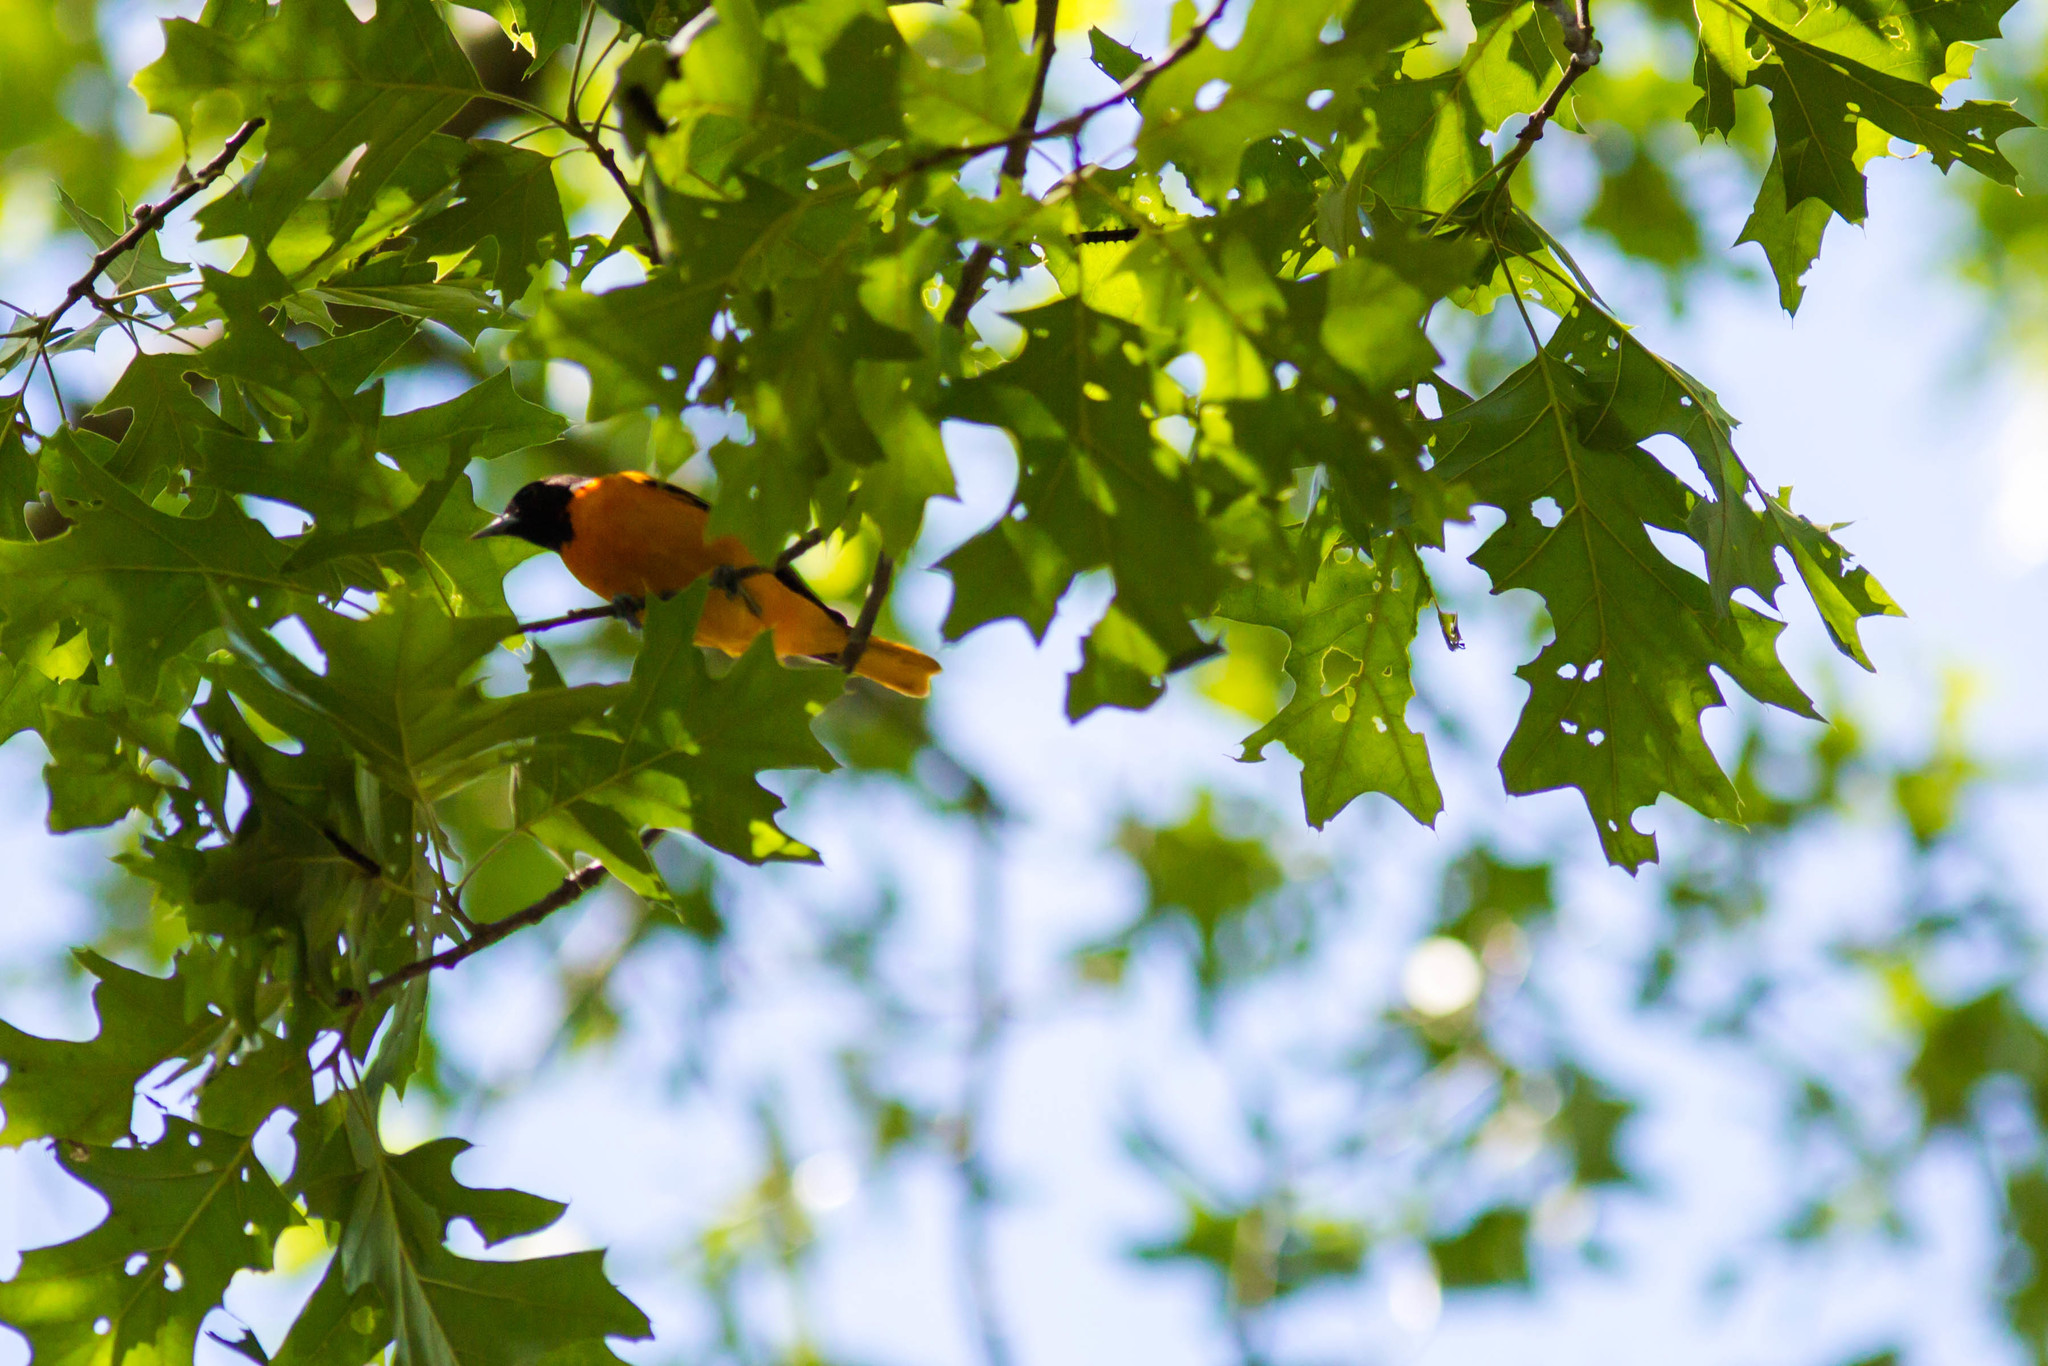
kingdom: Animalia
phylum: Chordata
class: Aves
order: Passeriformes
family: Icteridae
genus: Icterus
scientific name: Icterus galbula
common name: Baltimore oriole
